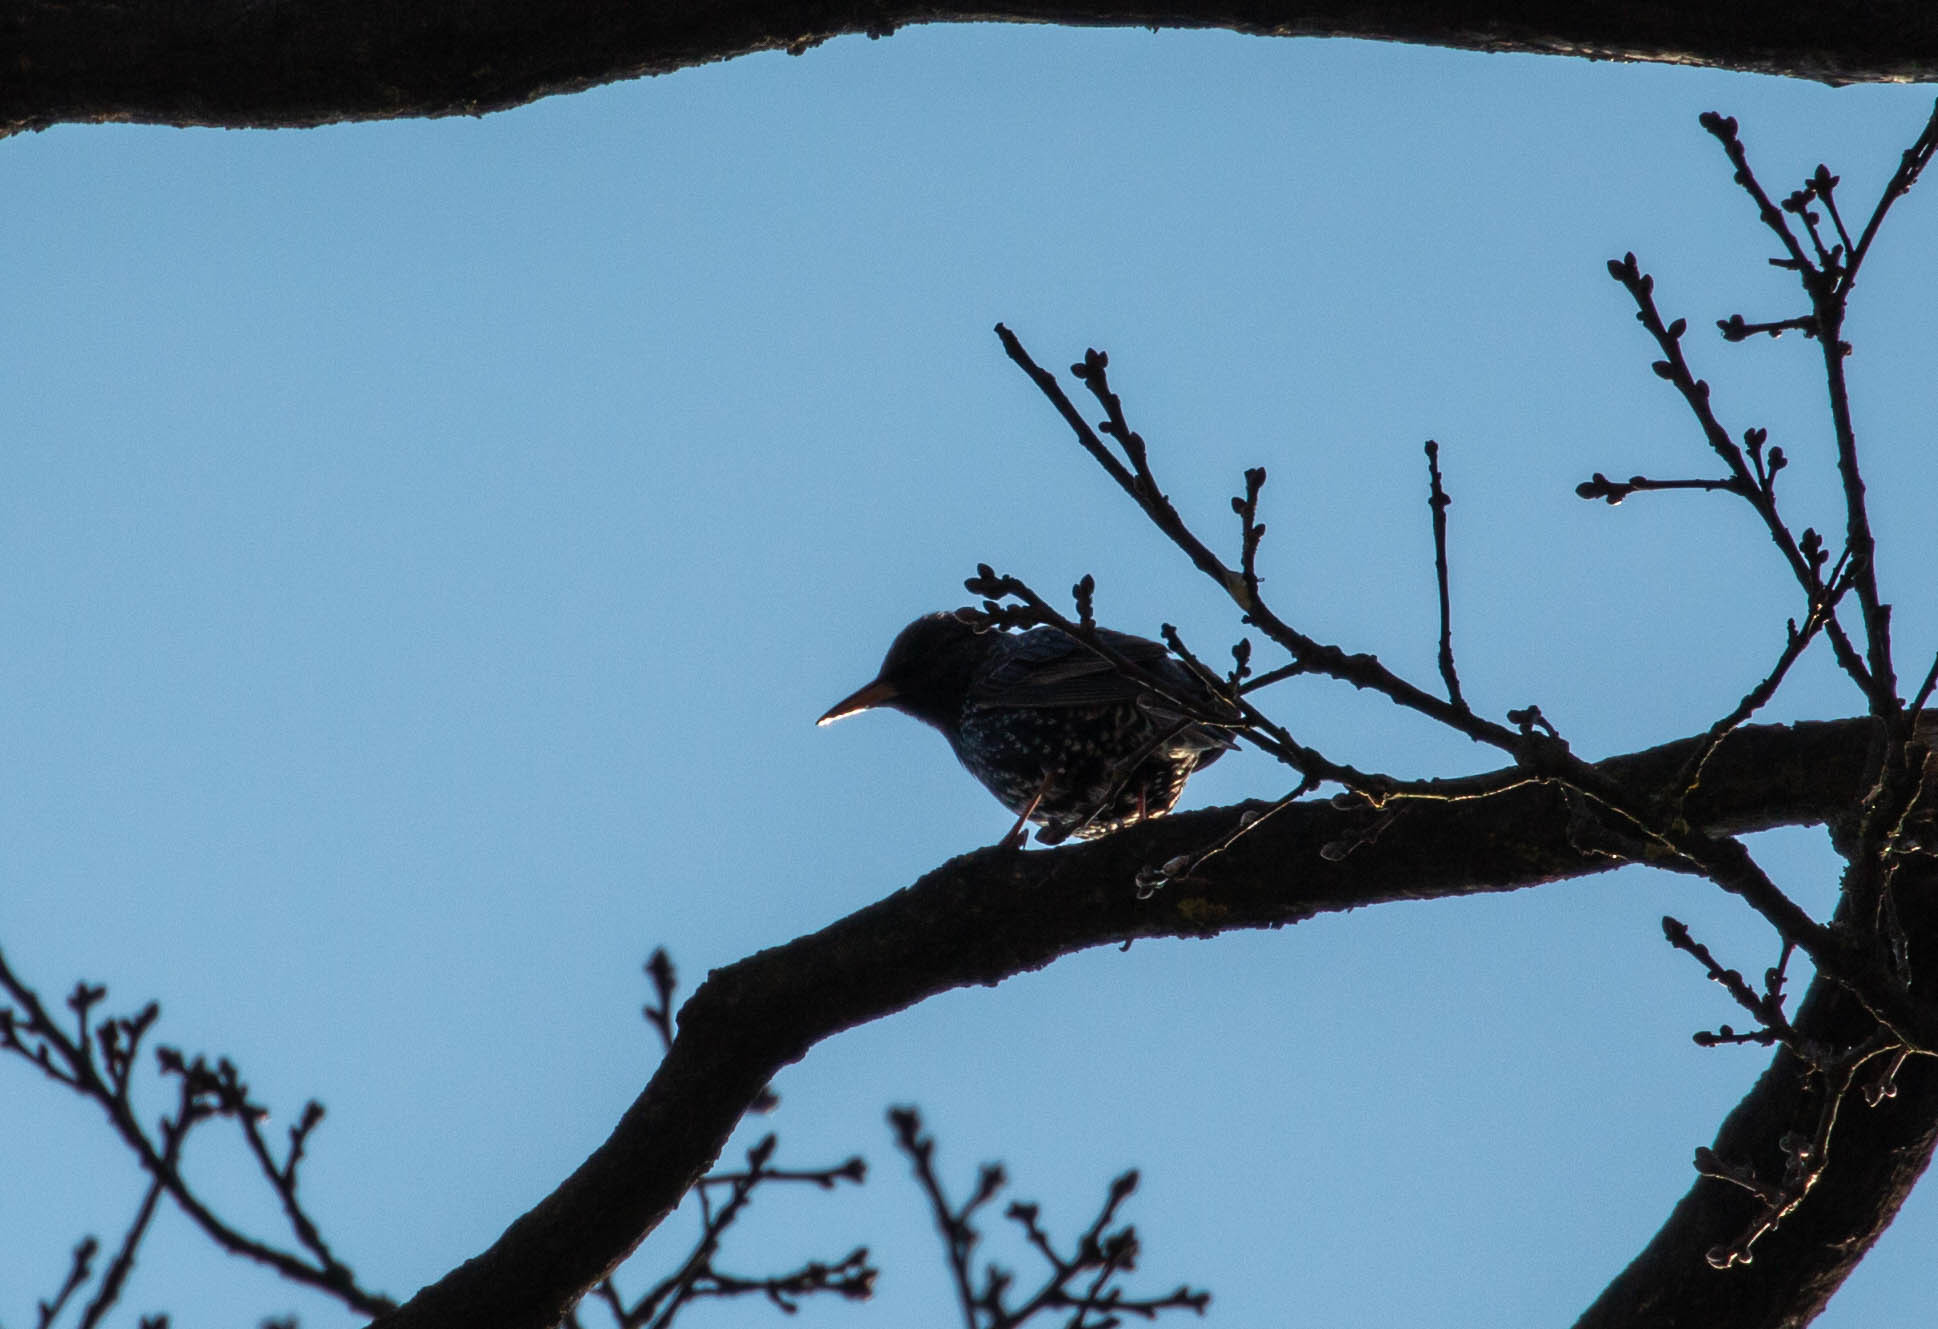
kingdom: Animalia
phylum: Chordata
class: Aves
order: Passeriformes
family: Sturnidae
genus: Sturnus
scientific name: Sturnus vulgaris
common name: Common starling
